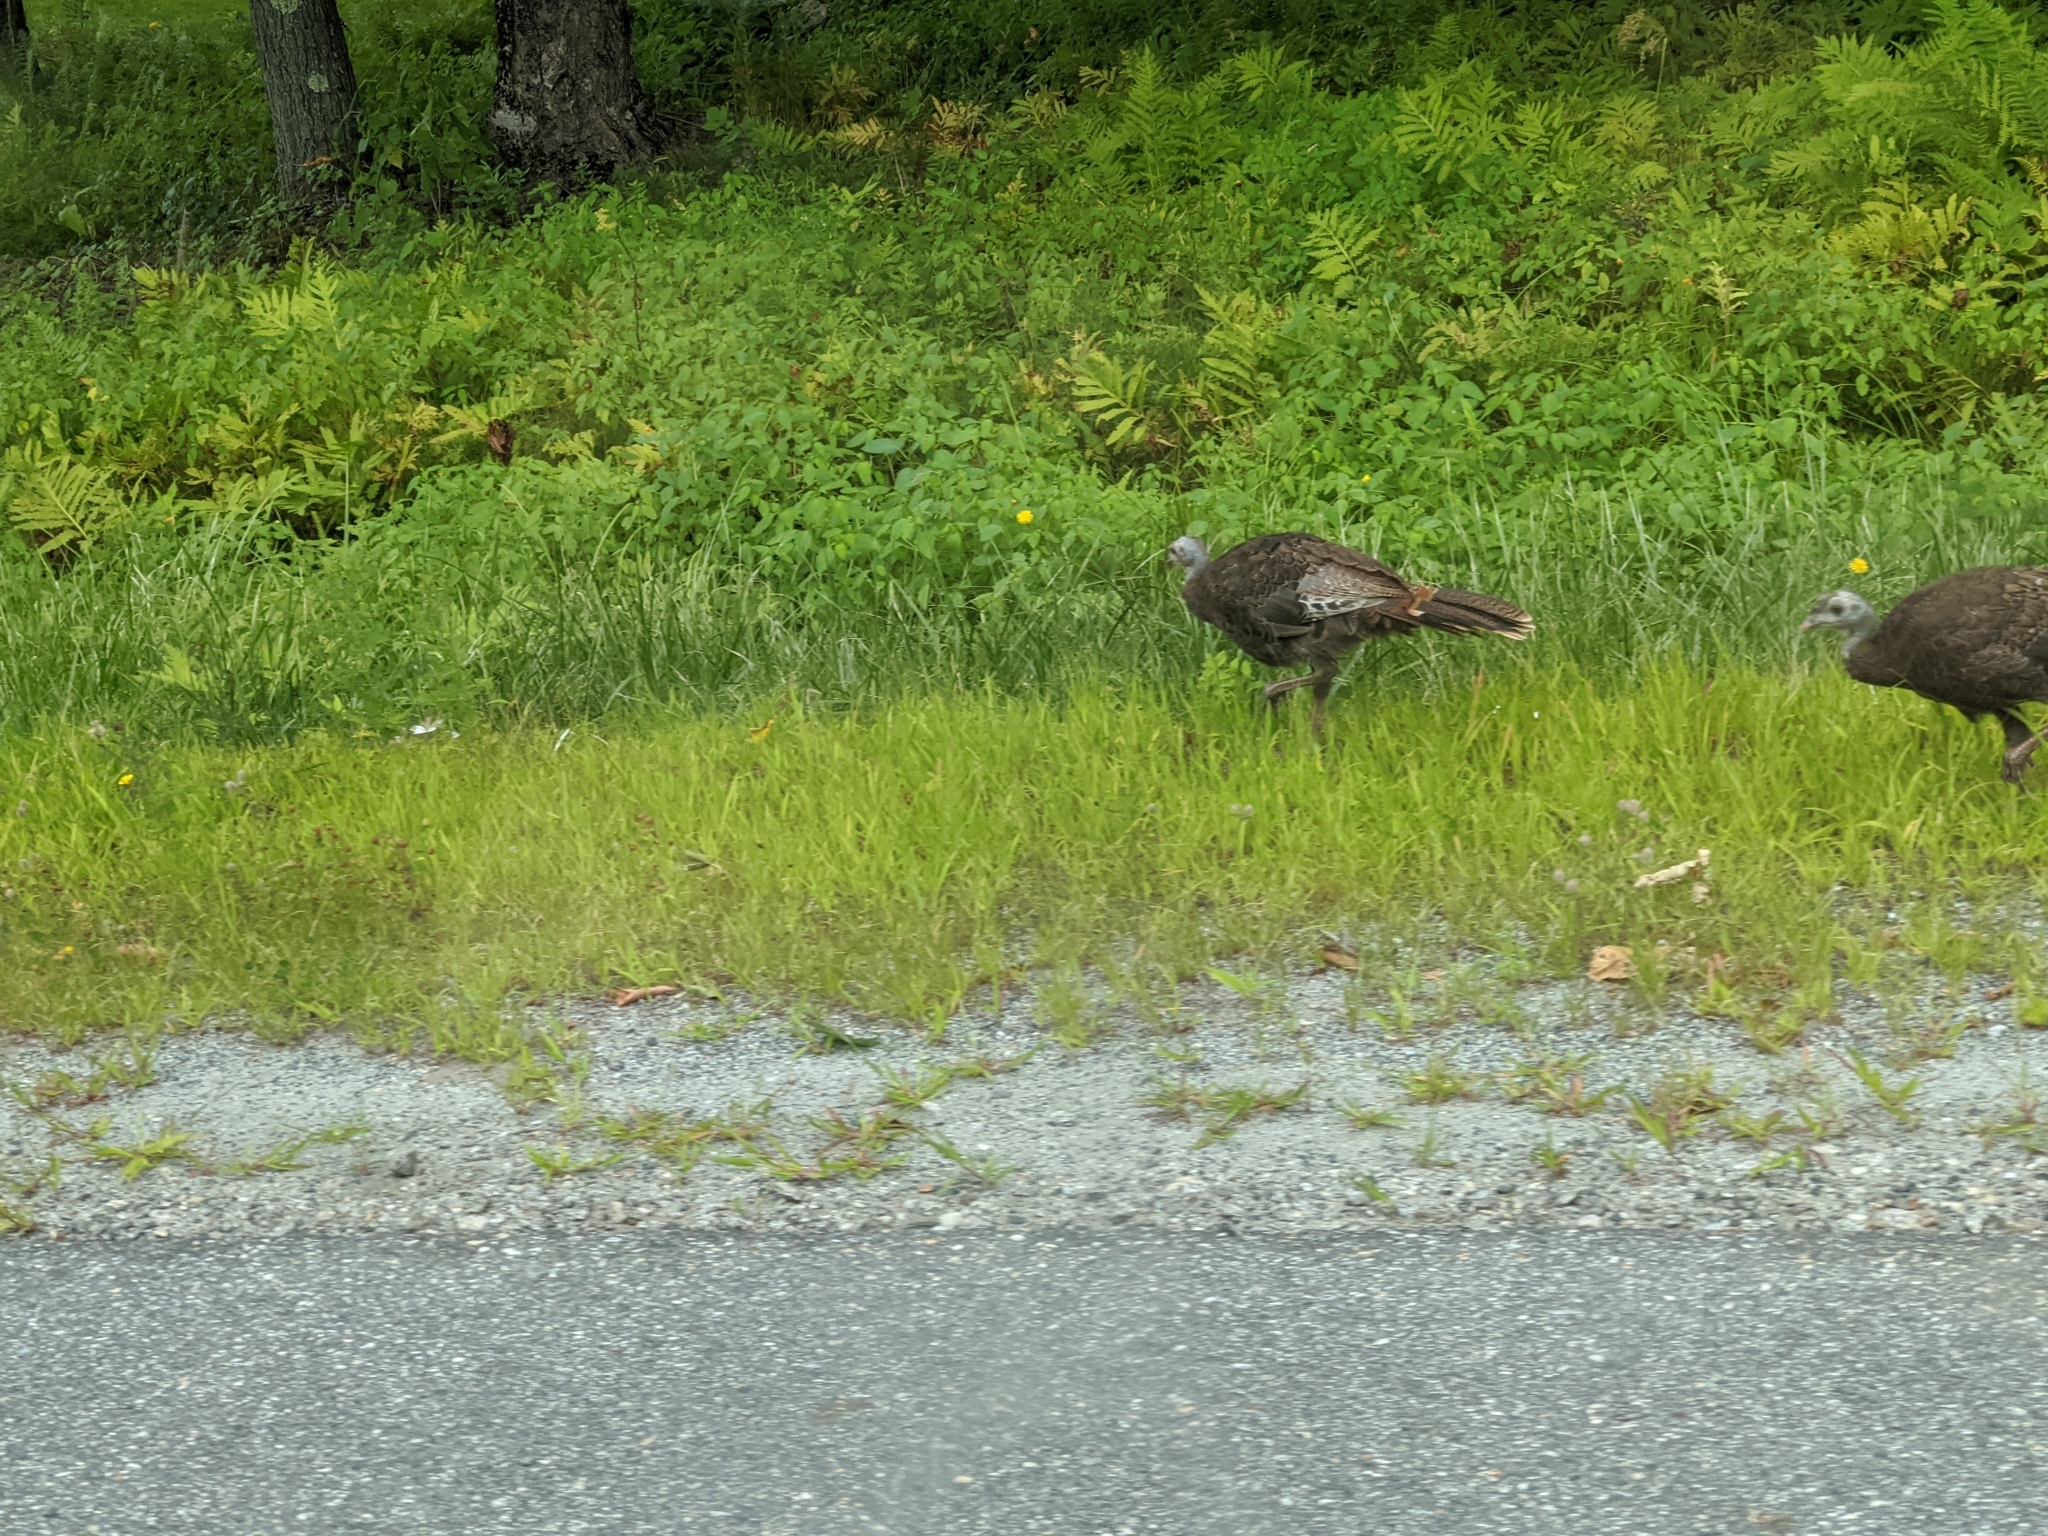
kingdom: Animalia
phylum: Chordata
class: Aves
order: Galliformes
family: Phasianidae
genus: Meleagris
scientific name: Meleagris gallopavo
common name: Wild turkey
